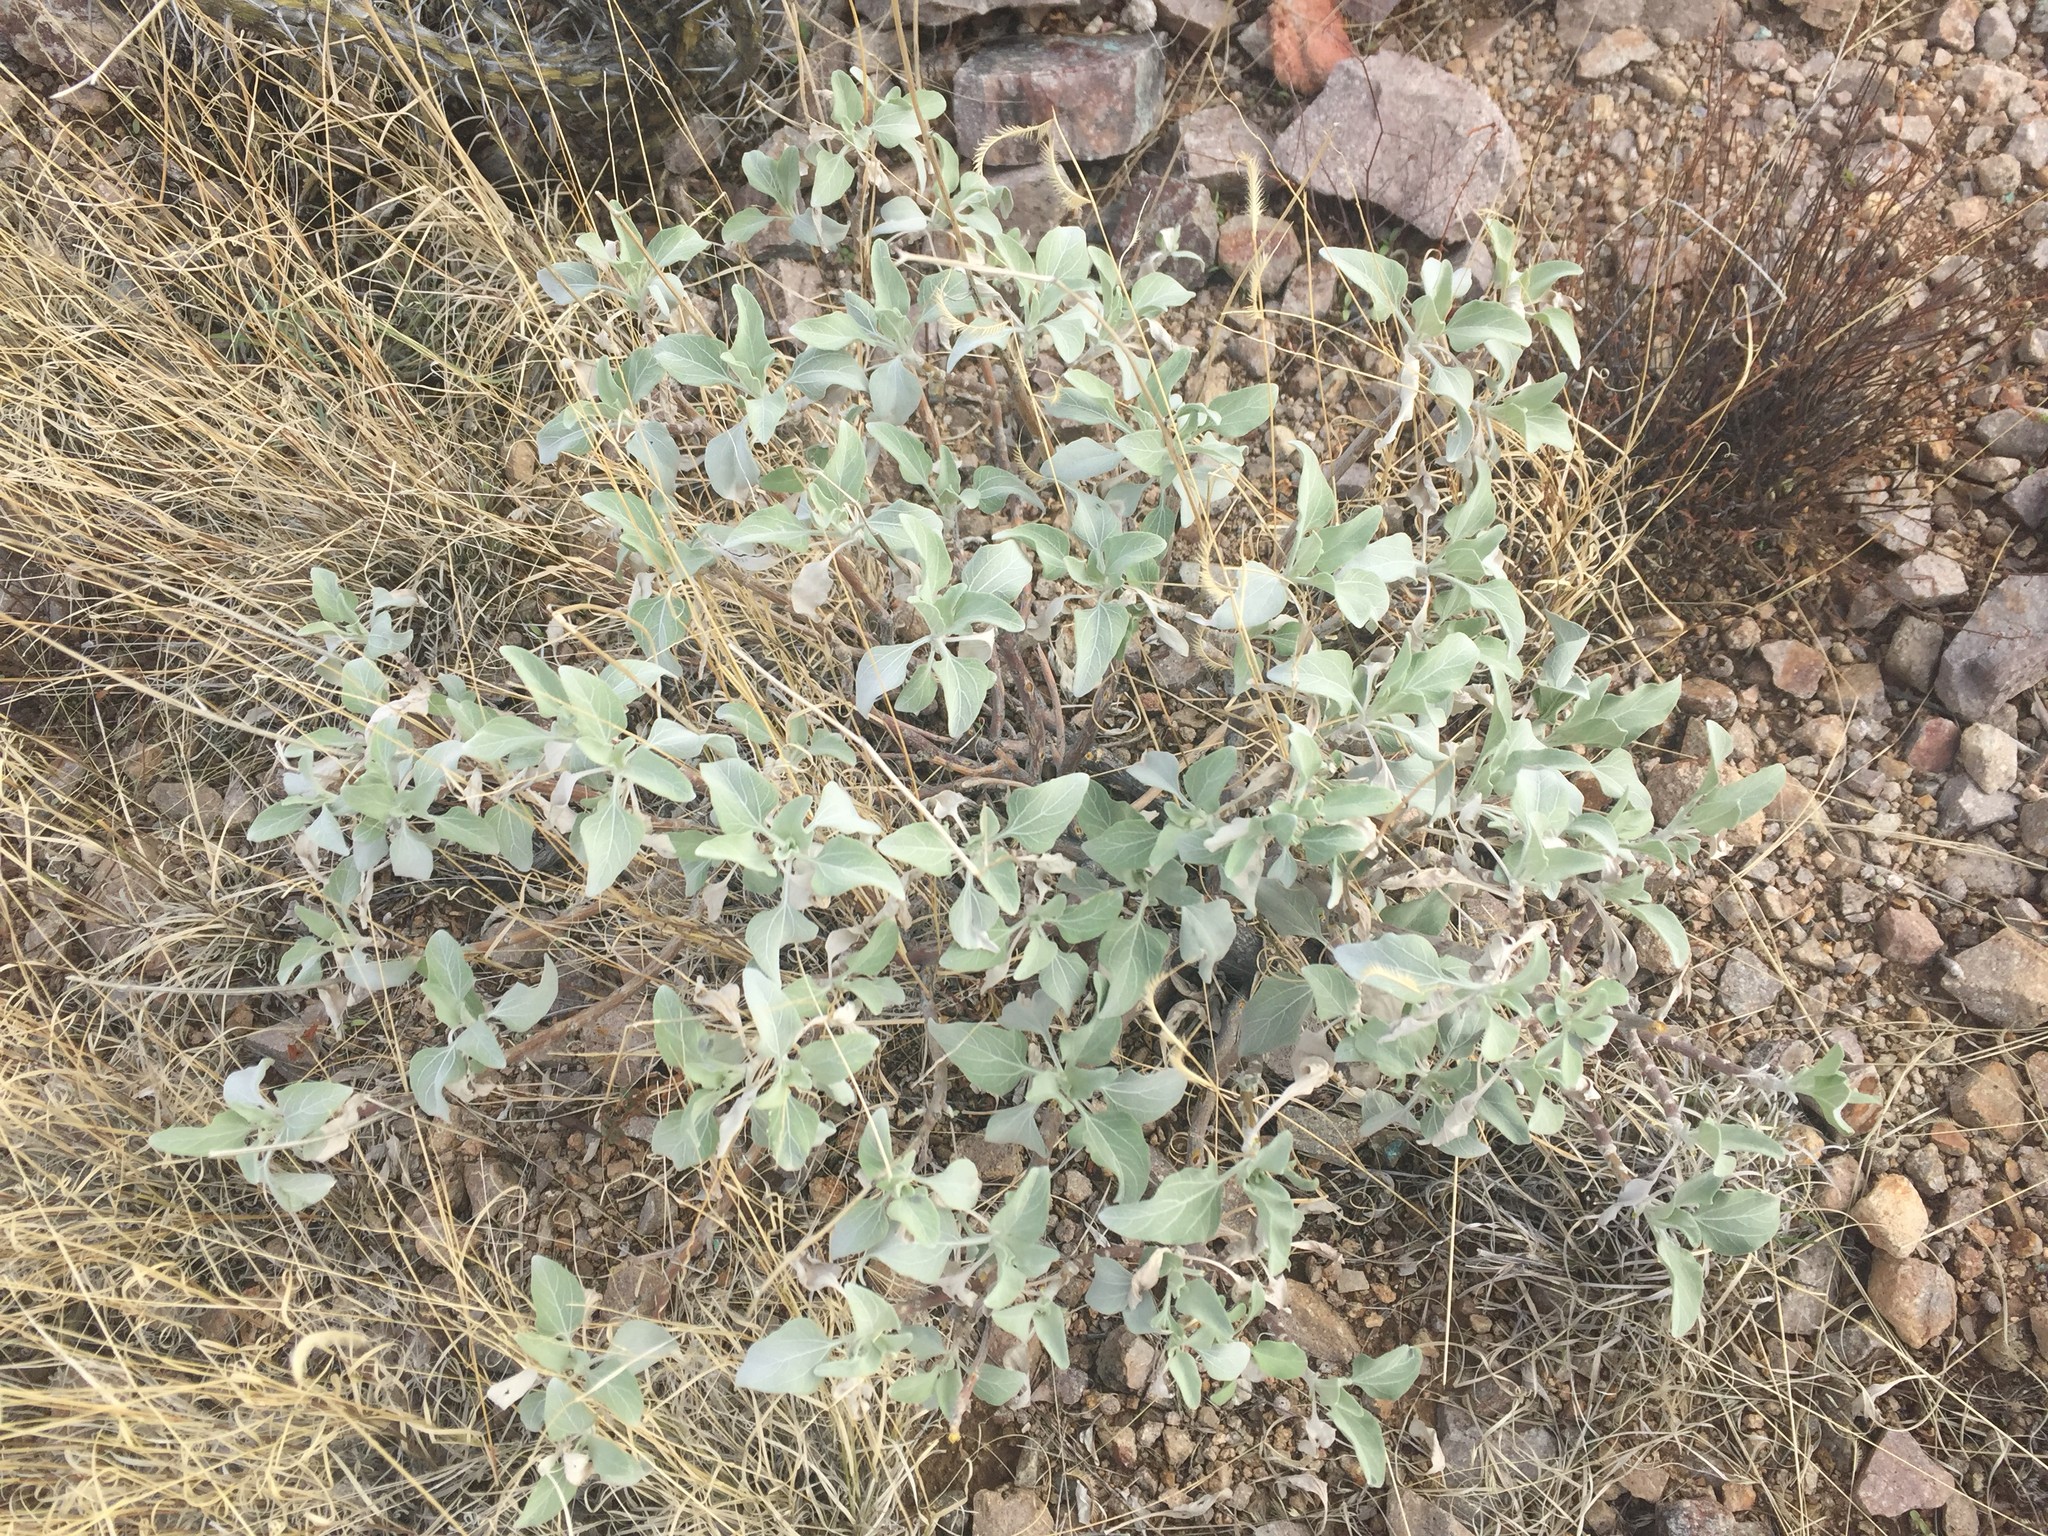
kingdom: Plantae
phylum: Tracheophyta
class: Magnoliopsida
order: Asterales
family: Asteraceae
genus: Encelia
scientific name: Encelia farinosa
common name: Brittlebush
